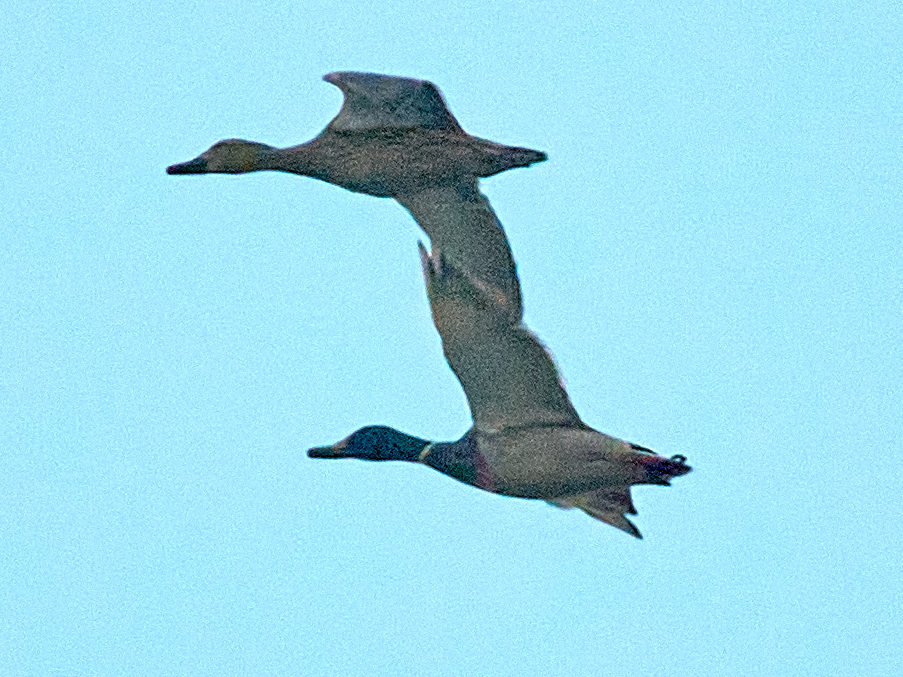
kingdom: Animalia
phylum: Chordata
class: Aves
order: Anseriformes
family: Anatidae
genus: Anas
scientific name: Anas platyrhynchos
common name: Mallard
